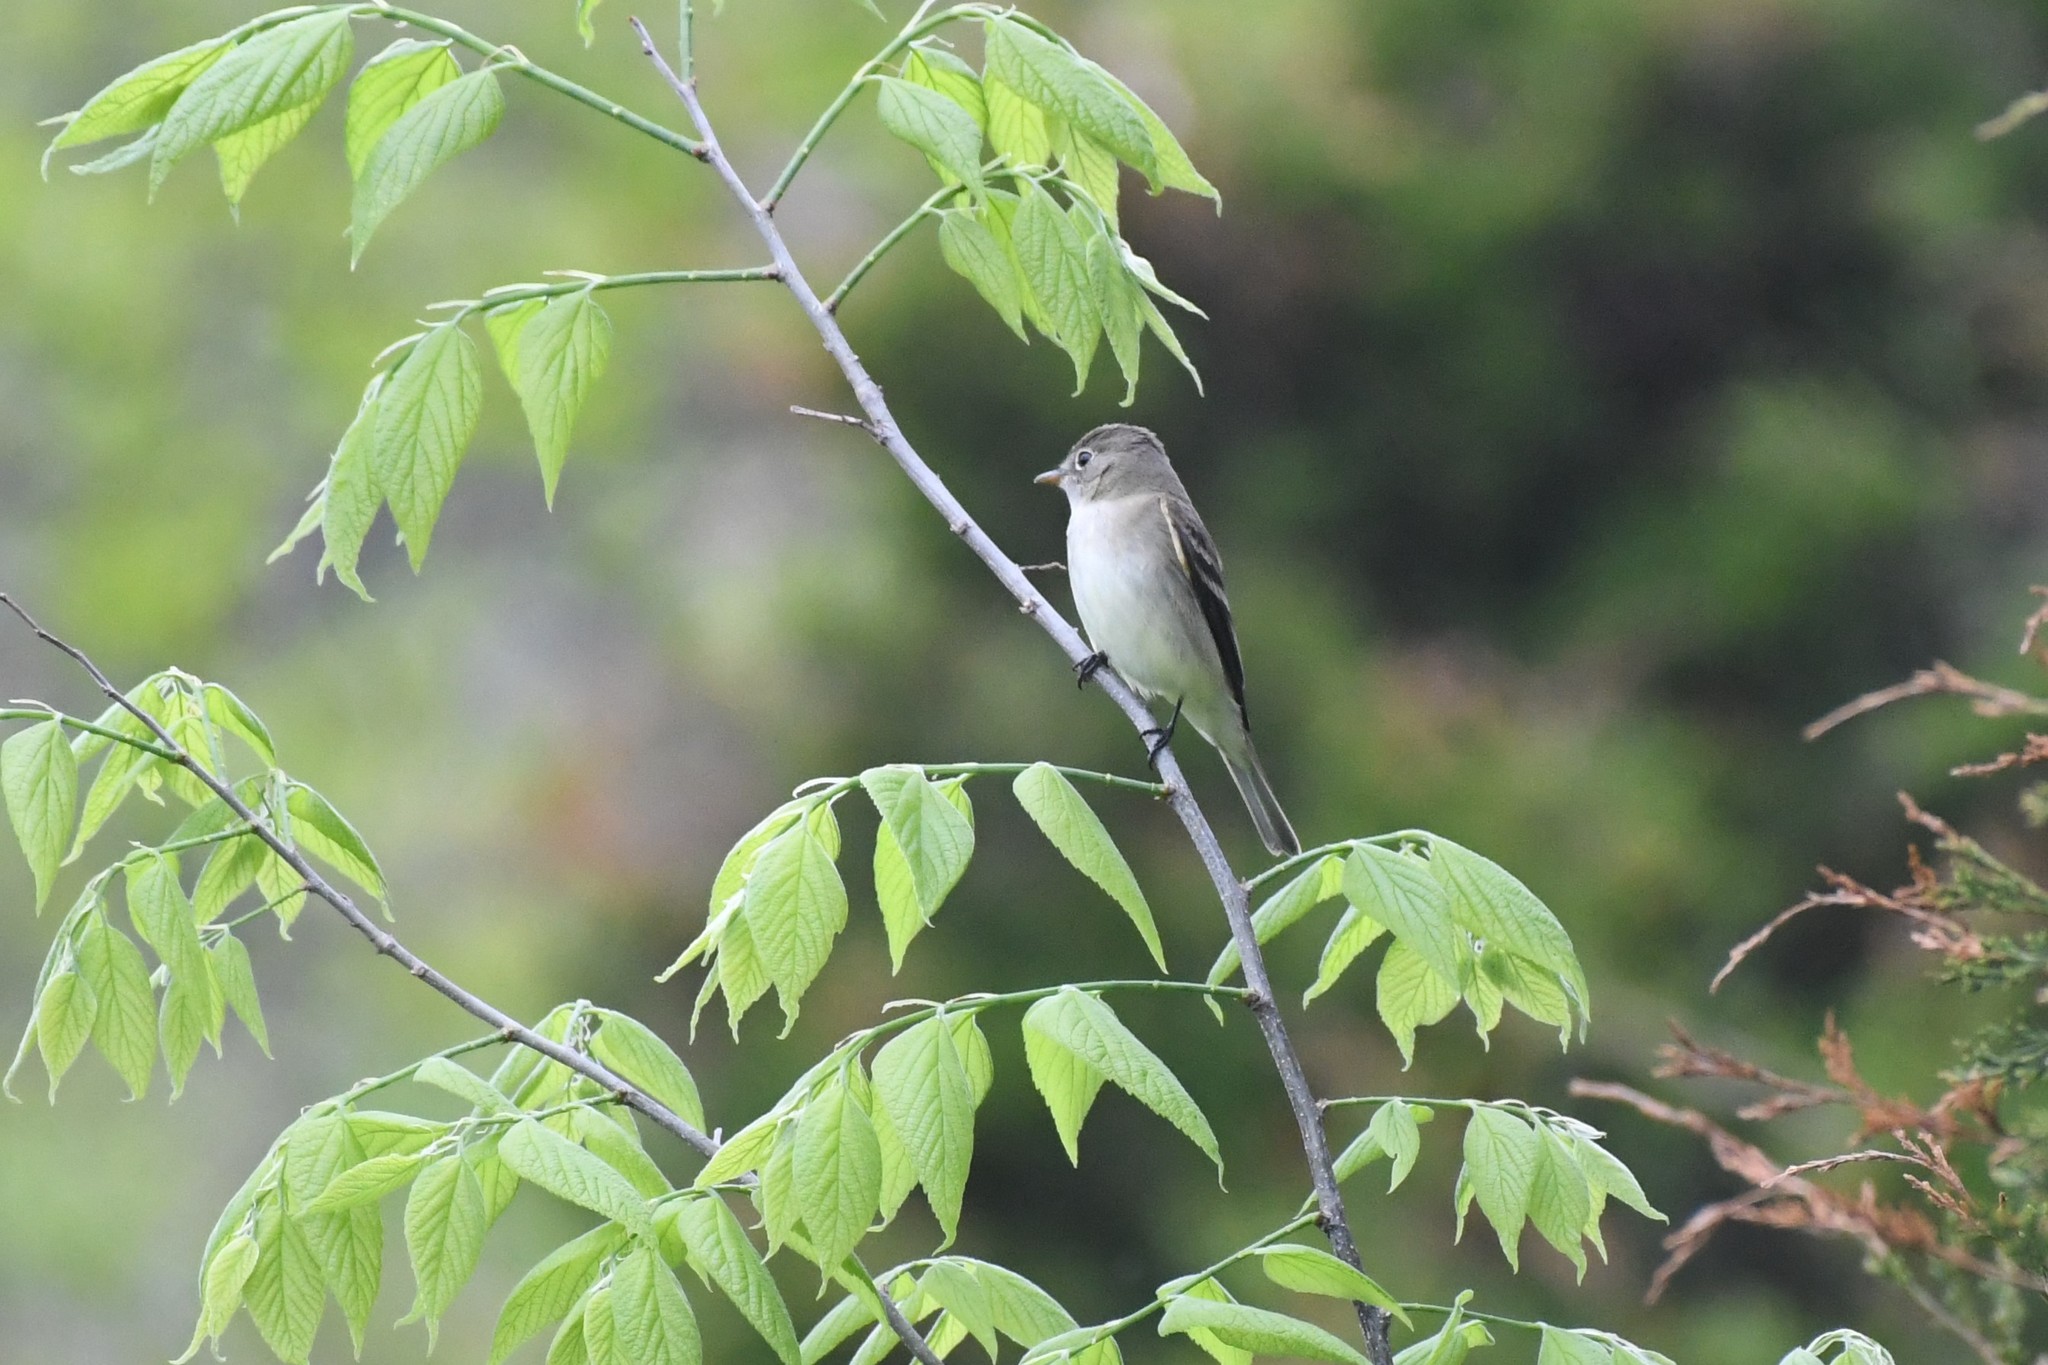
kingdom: Animalia
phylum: Chordata
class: Aves
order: Passeriformes
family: Tyrannidae
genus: Empidonax
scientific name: Empidonax alnorum
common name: Alder flycatcher
